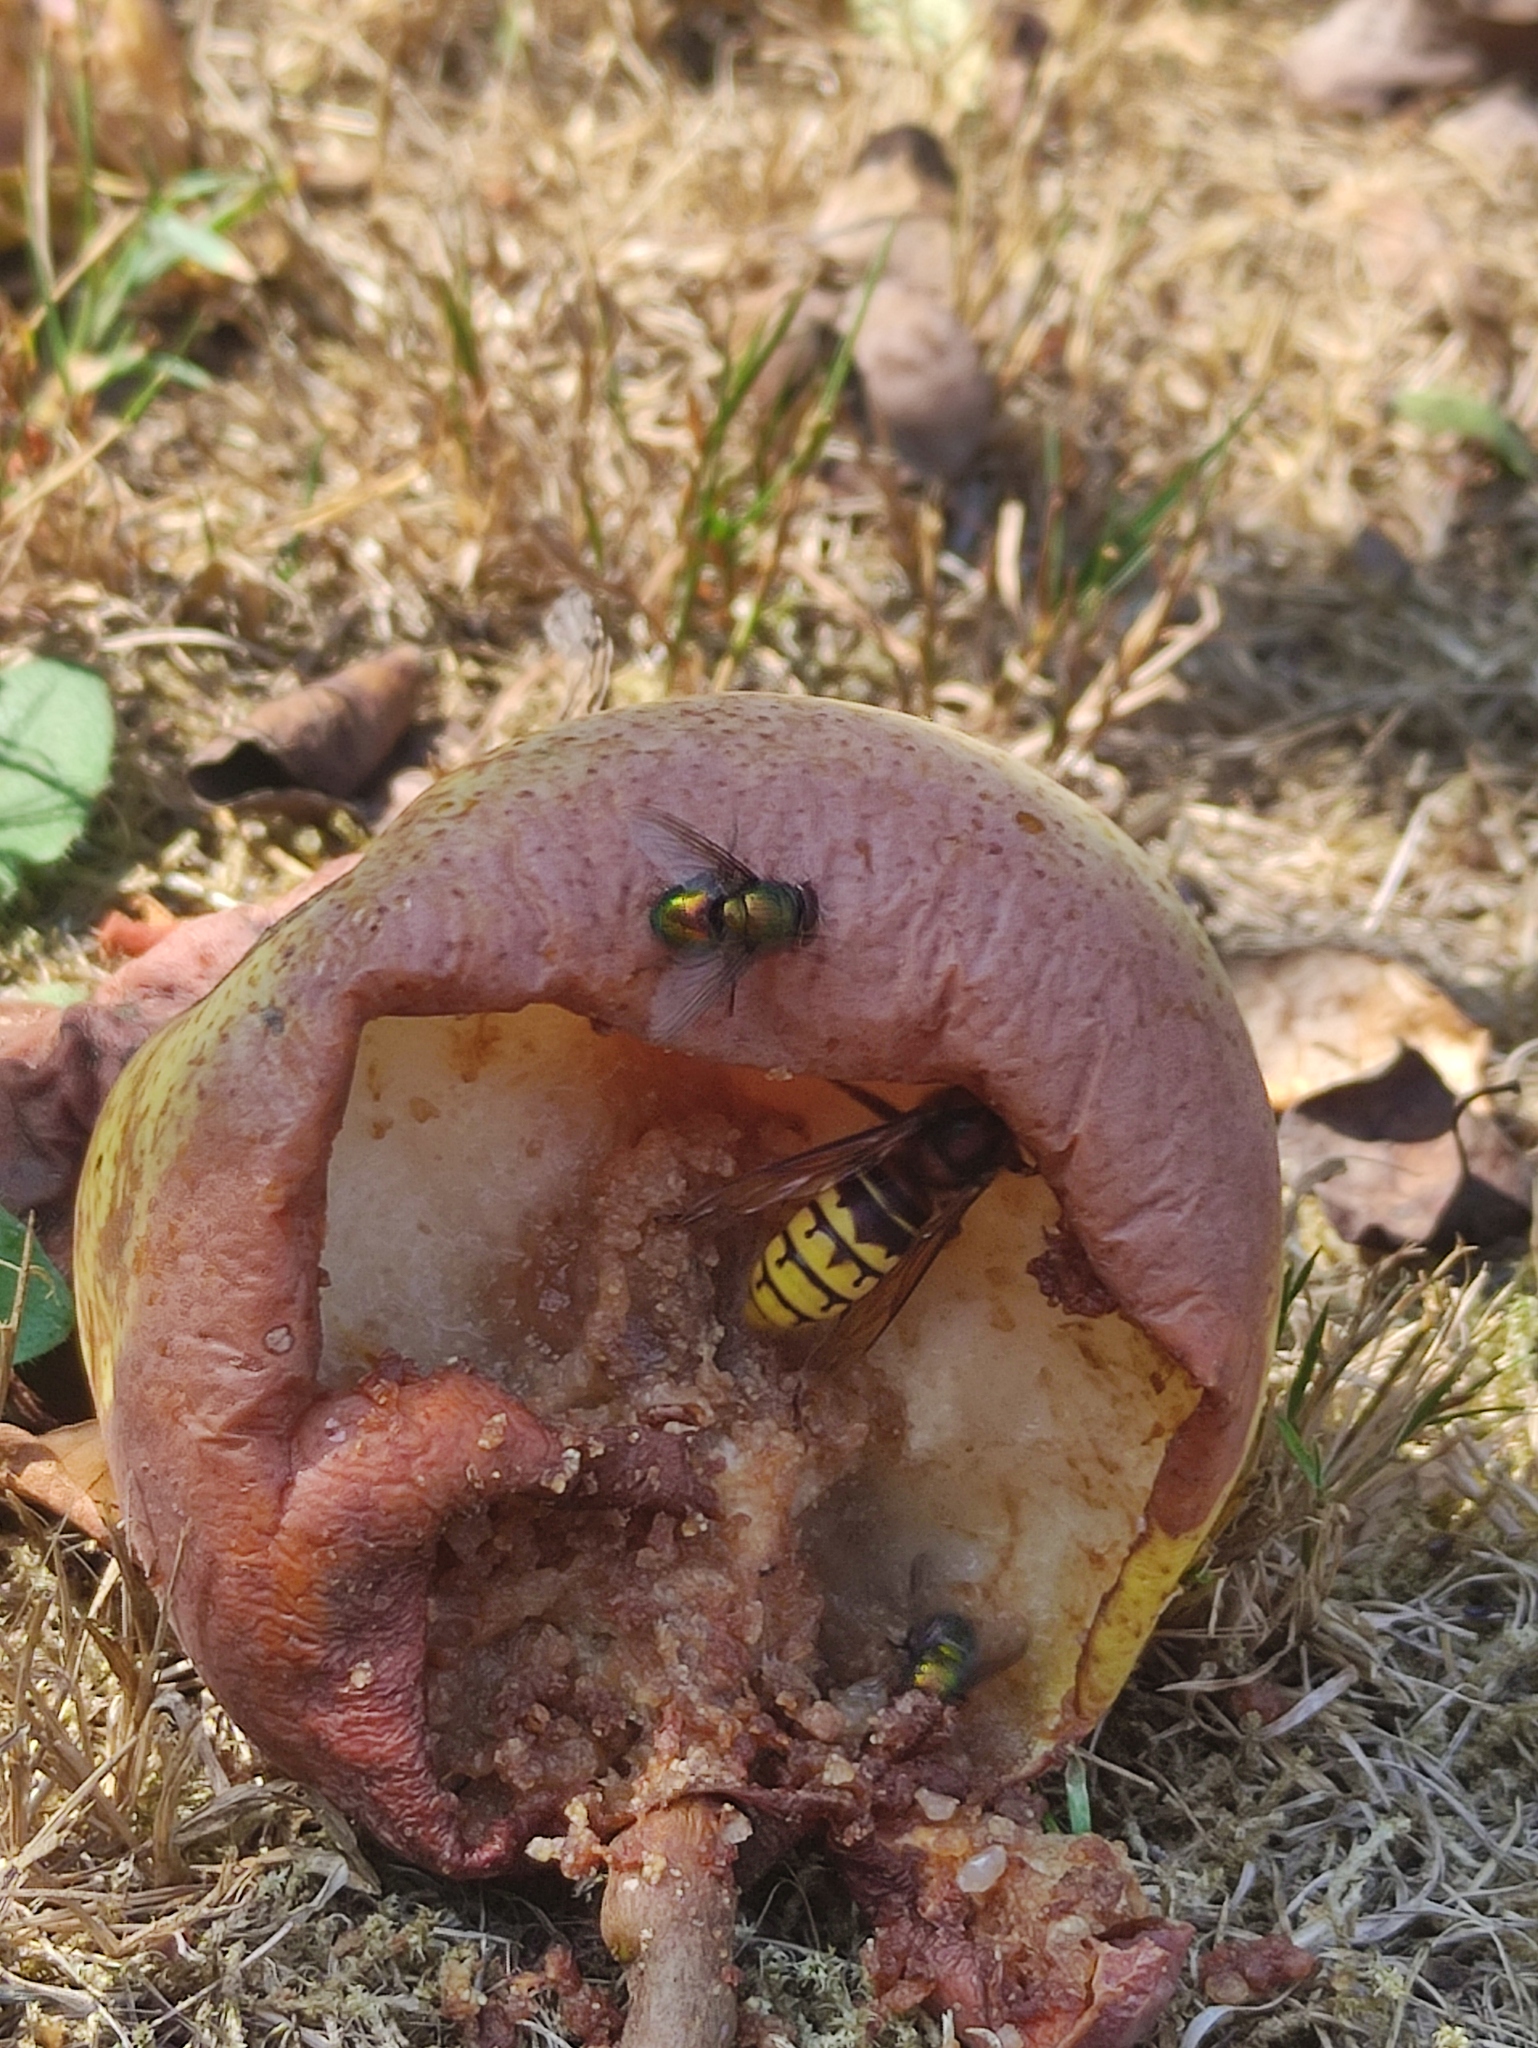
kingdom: Animalia
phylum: Arthropoda
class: Insecta
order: Hymenoptera
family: Vespidae
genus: Vespa
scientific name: Vespa crabro
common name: Hornet
